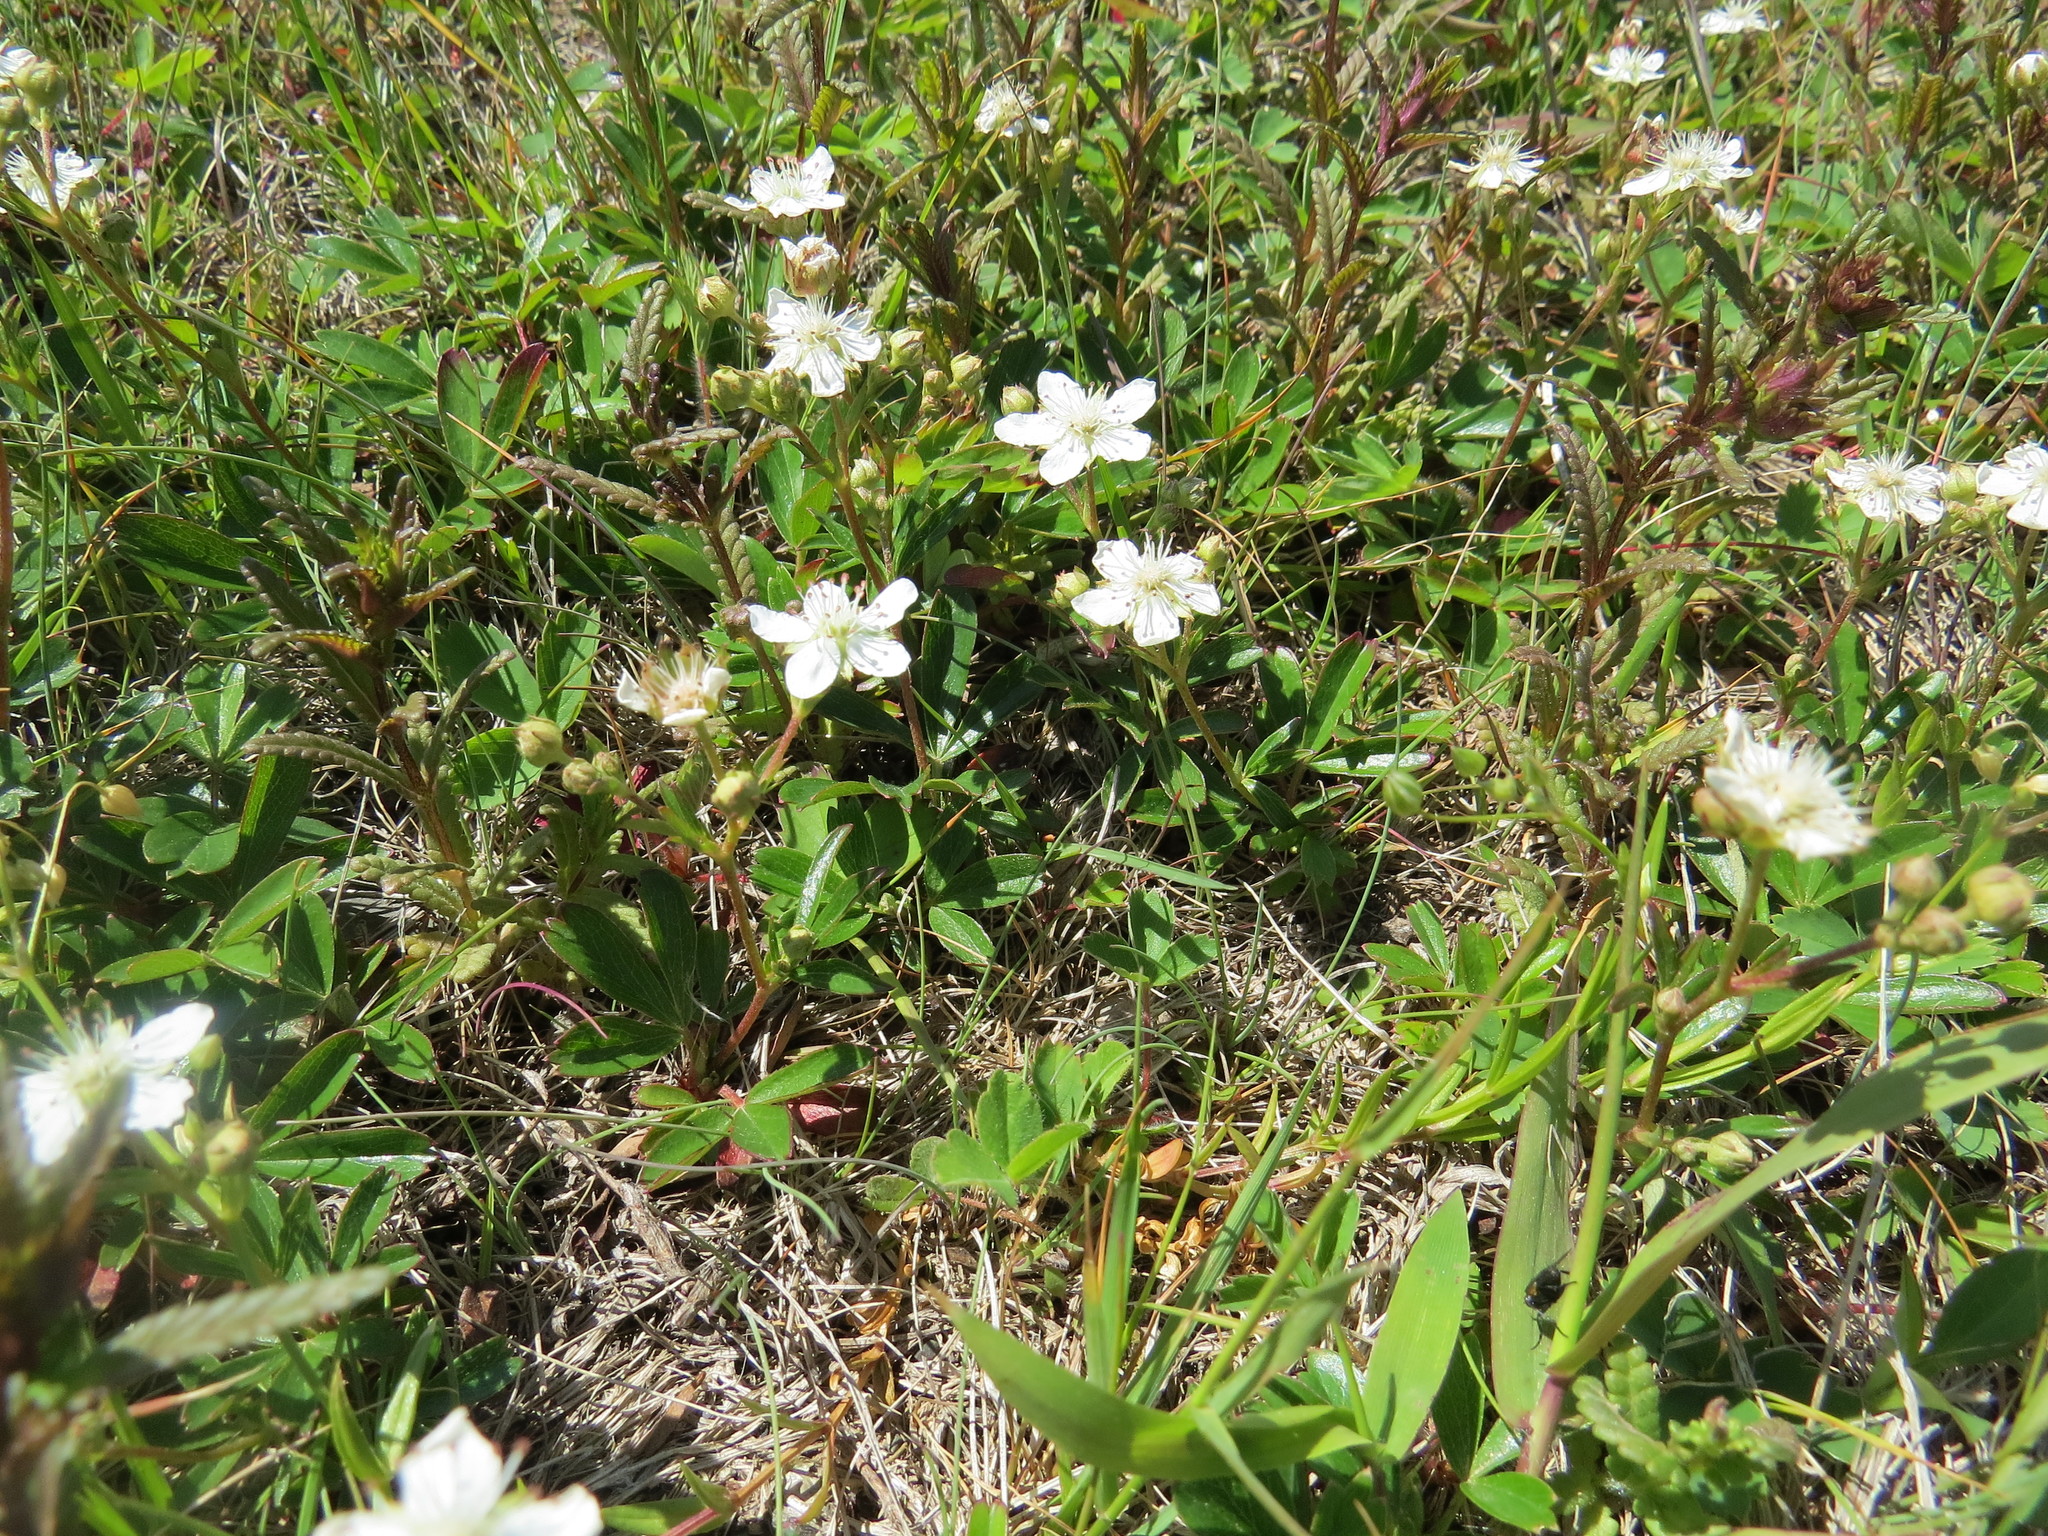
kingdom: Plantae
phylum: Tracheophyta
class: Magnoliopsida
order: Rosales
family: Rosaceae
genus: Sibbaldia
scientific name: Sibbaldia tridentata
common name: Three-toothed cinquefoil
